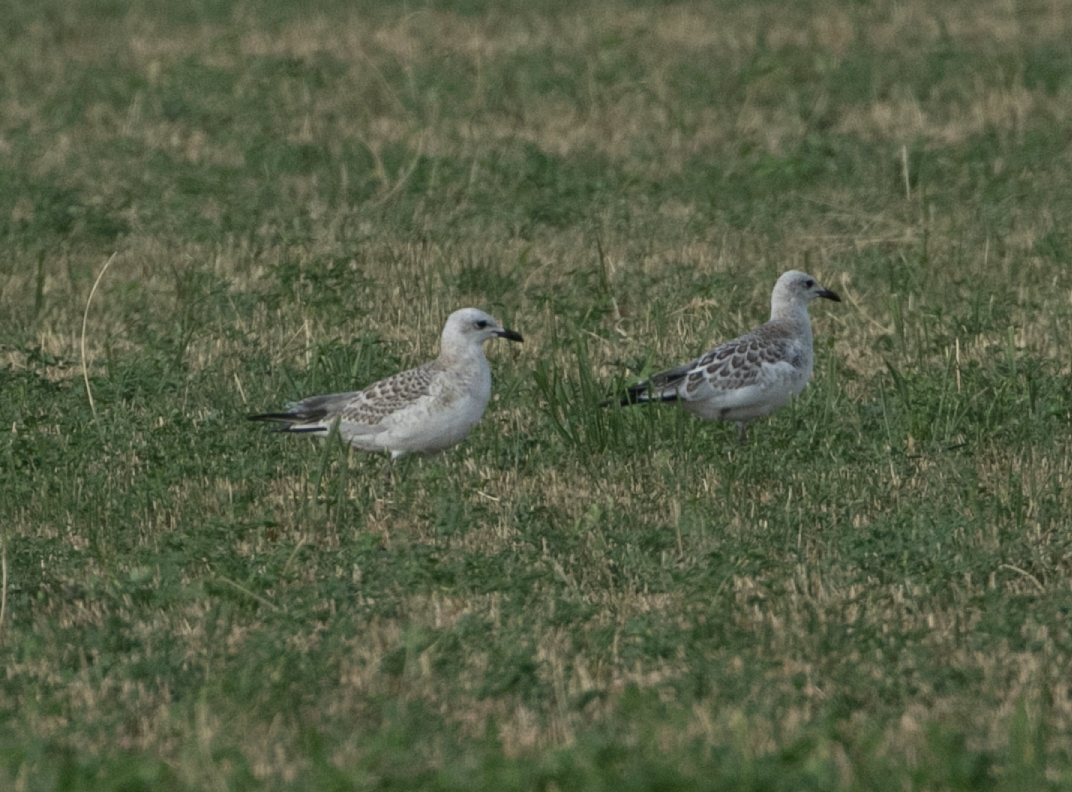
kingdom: Animalia
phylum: Chordata
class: Aves
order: Charadriiformes
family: Laridae
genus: Ichthyaetus
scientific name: Ichthyaetus melanocephalus
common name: Mediterranean gull
